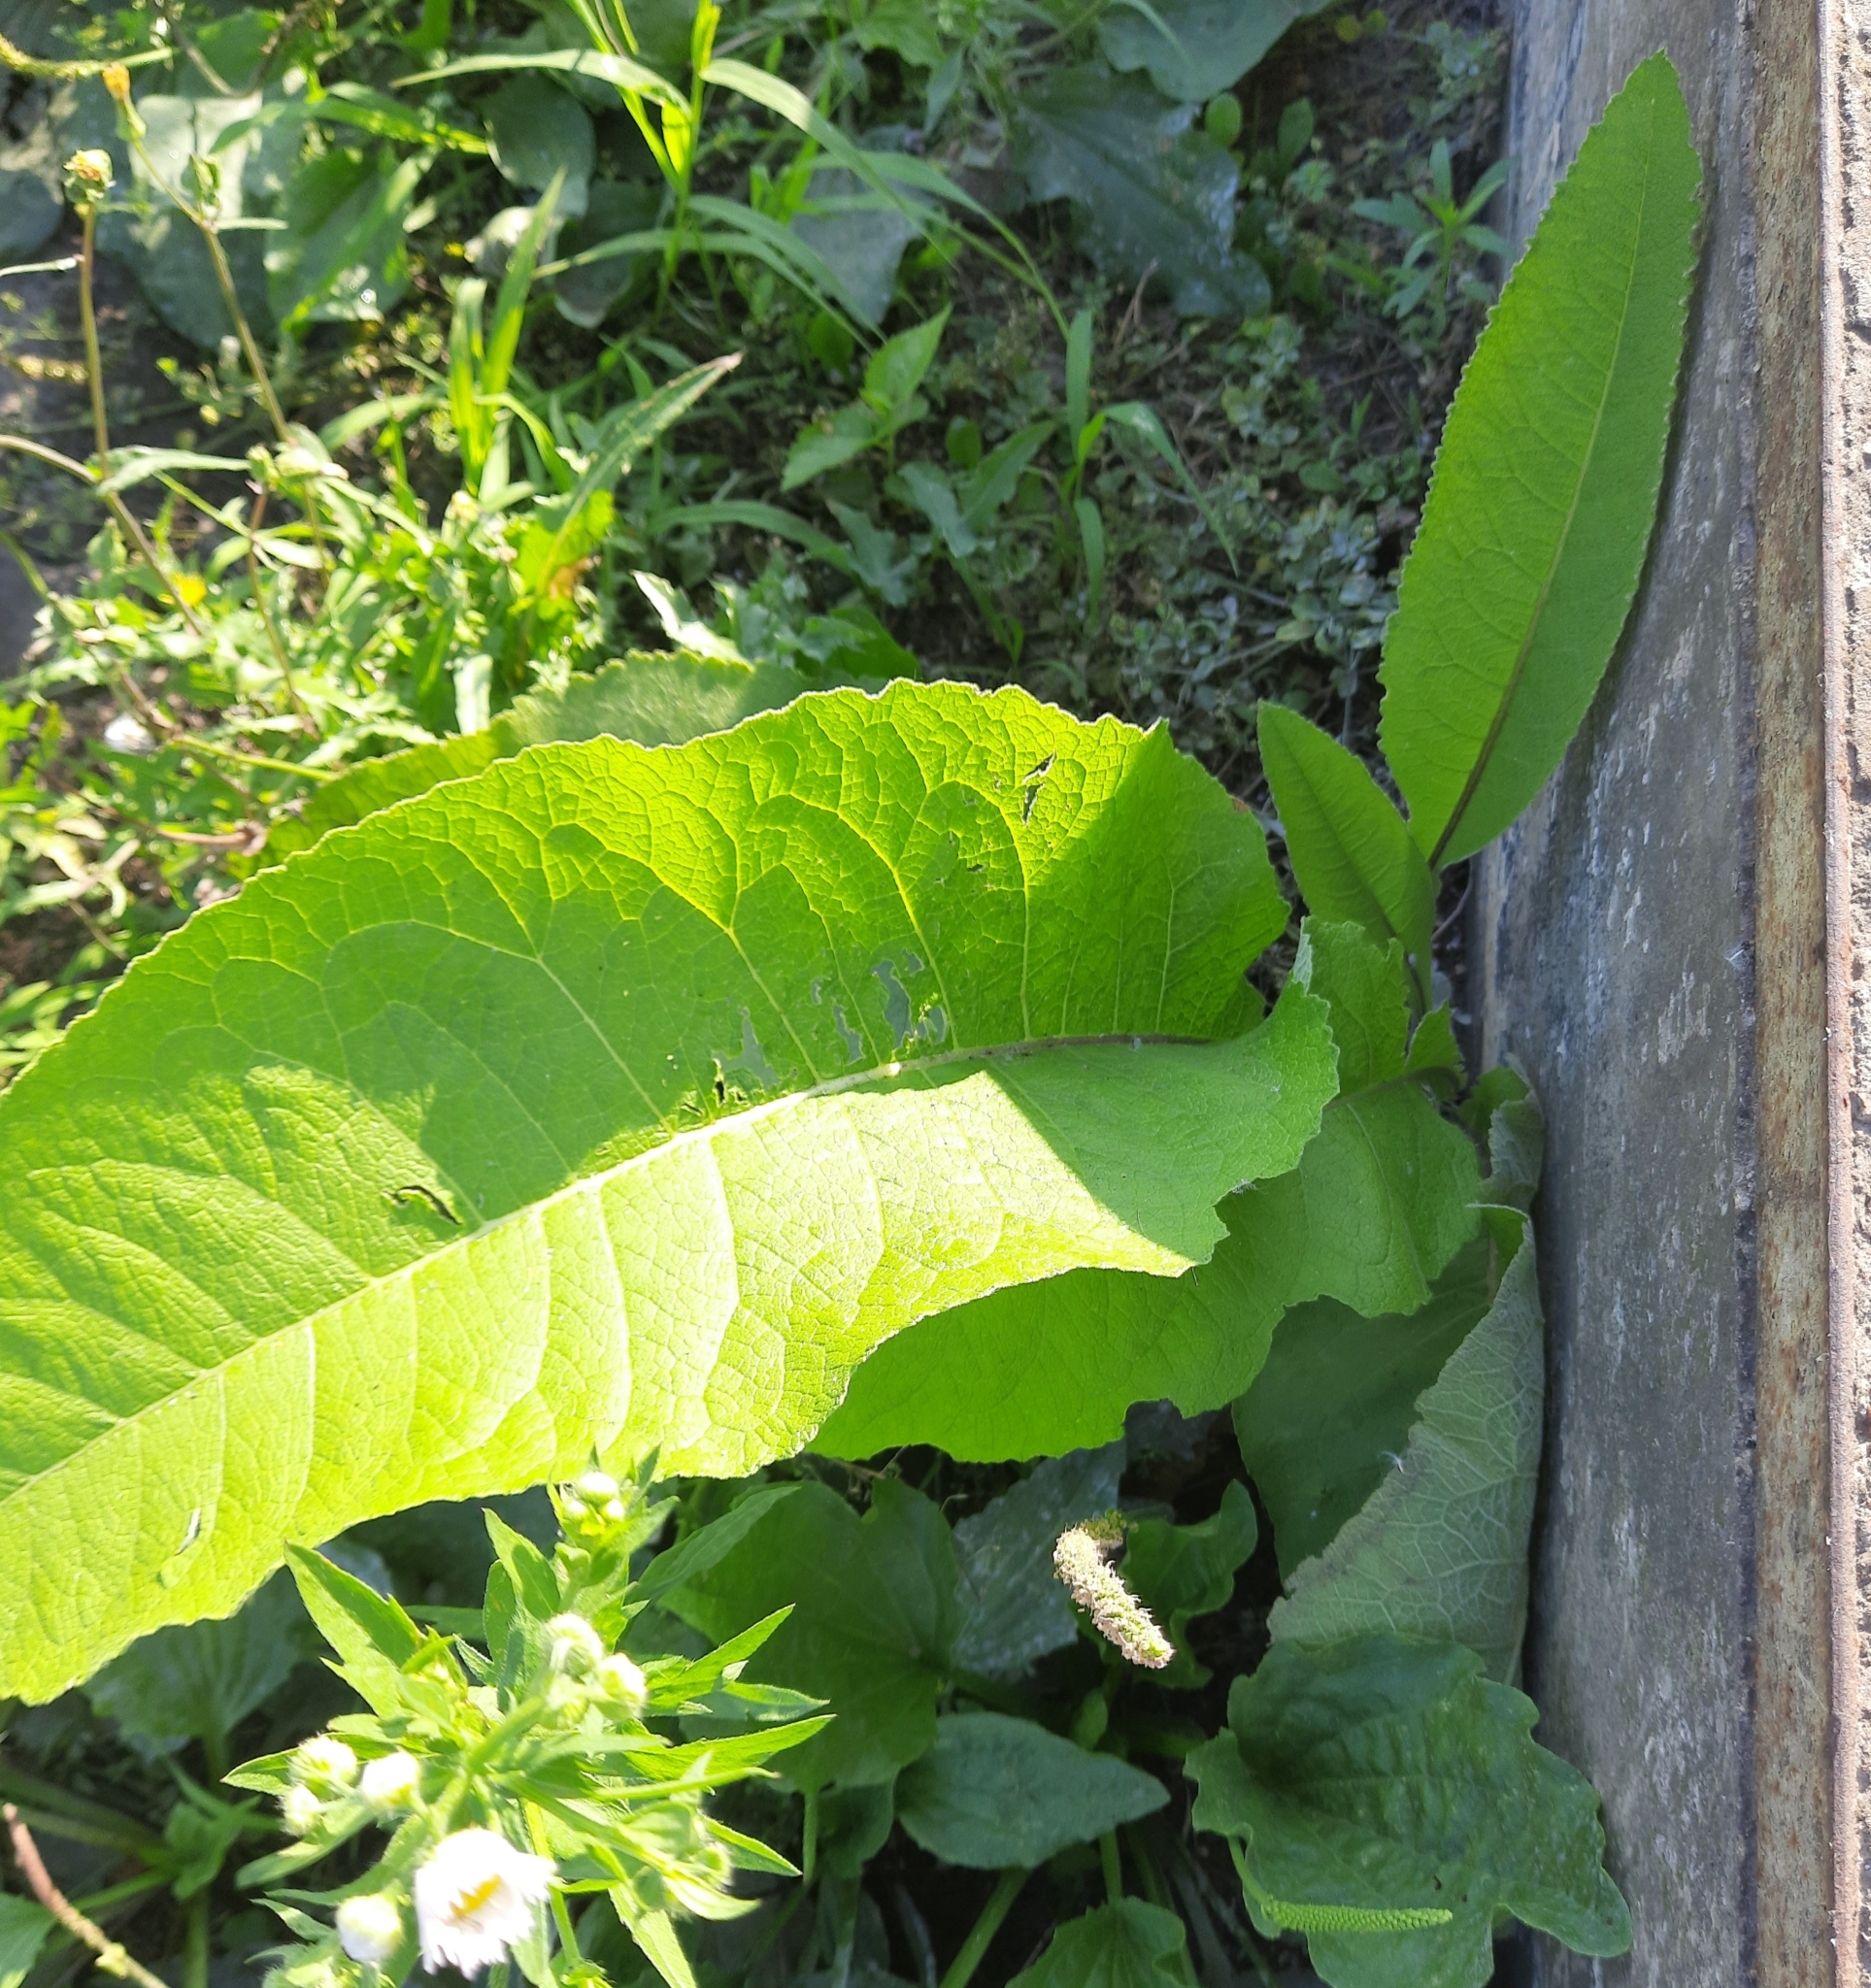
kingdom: Plantae
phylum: Tracheophyta
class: Magnoliopsida
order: Asterales
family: Asteraceae
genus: Inula
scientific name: Inula helenium
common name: Elecampane
